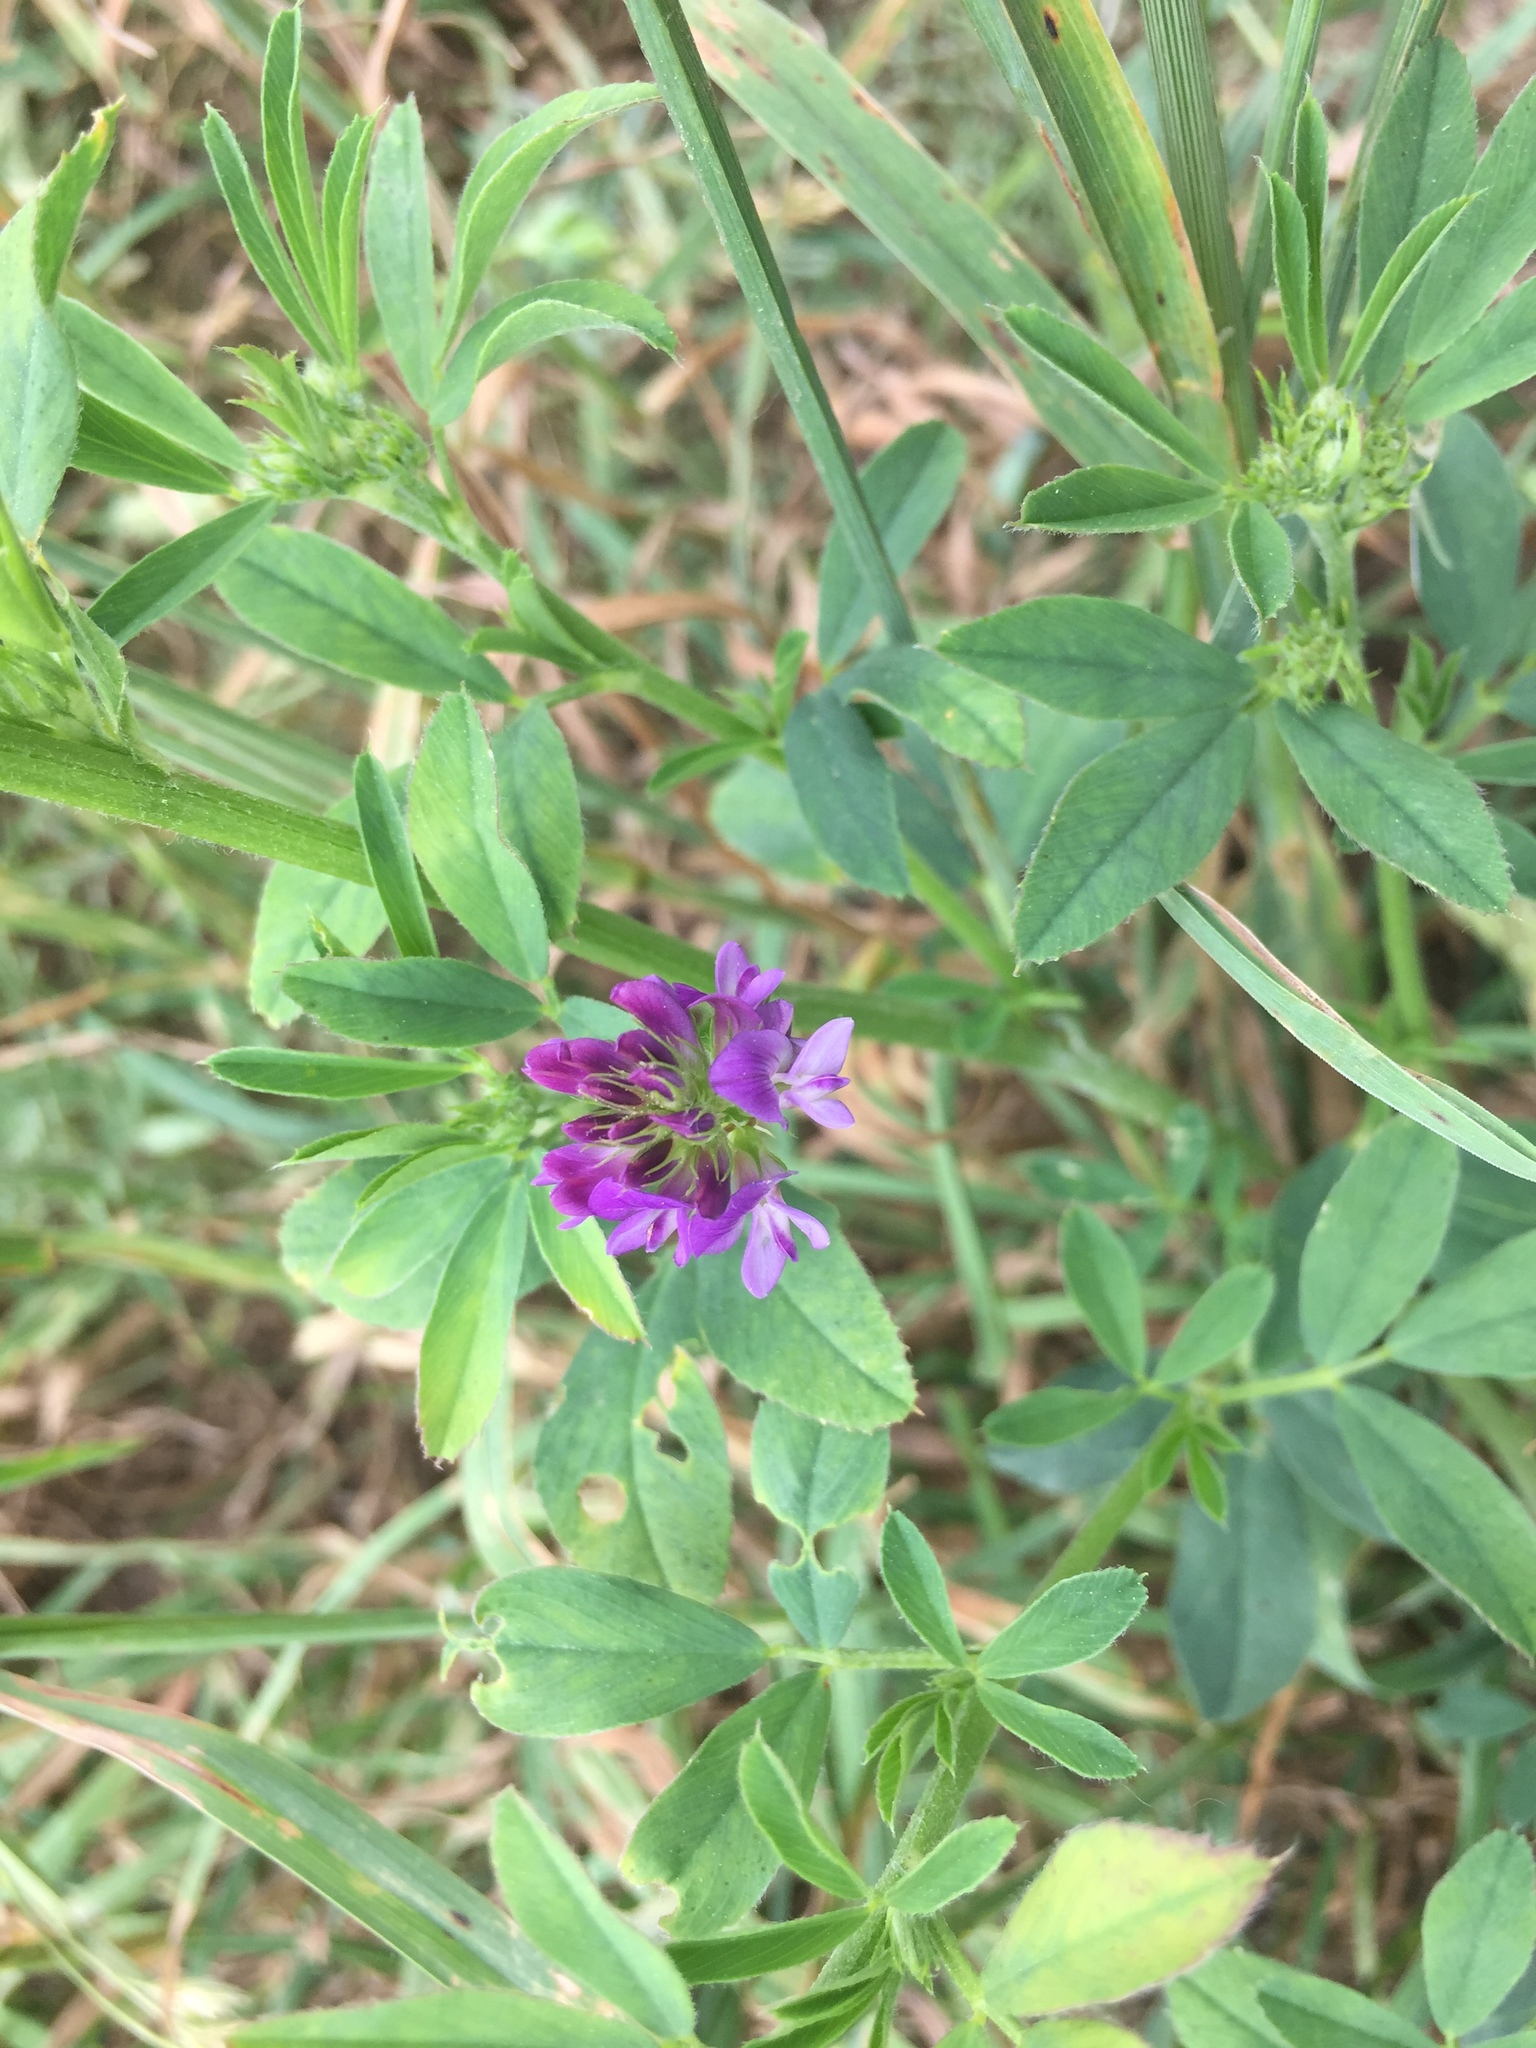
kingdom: Plantae
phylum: Tracheophyta
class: Magnoliopsida
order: Fabales
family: Fabaceae
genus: Medicago
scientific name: Medicago sativa
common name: Alfalfa
